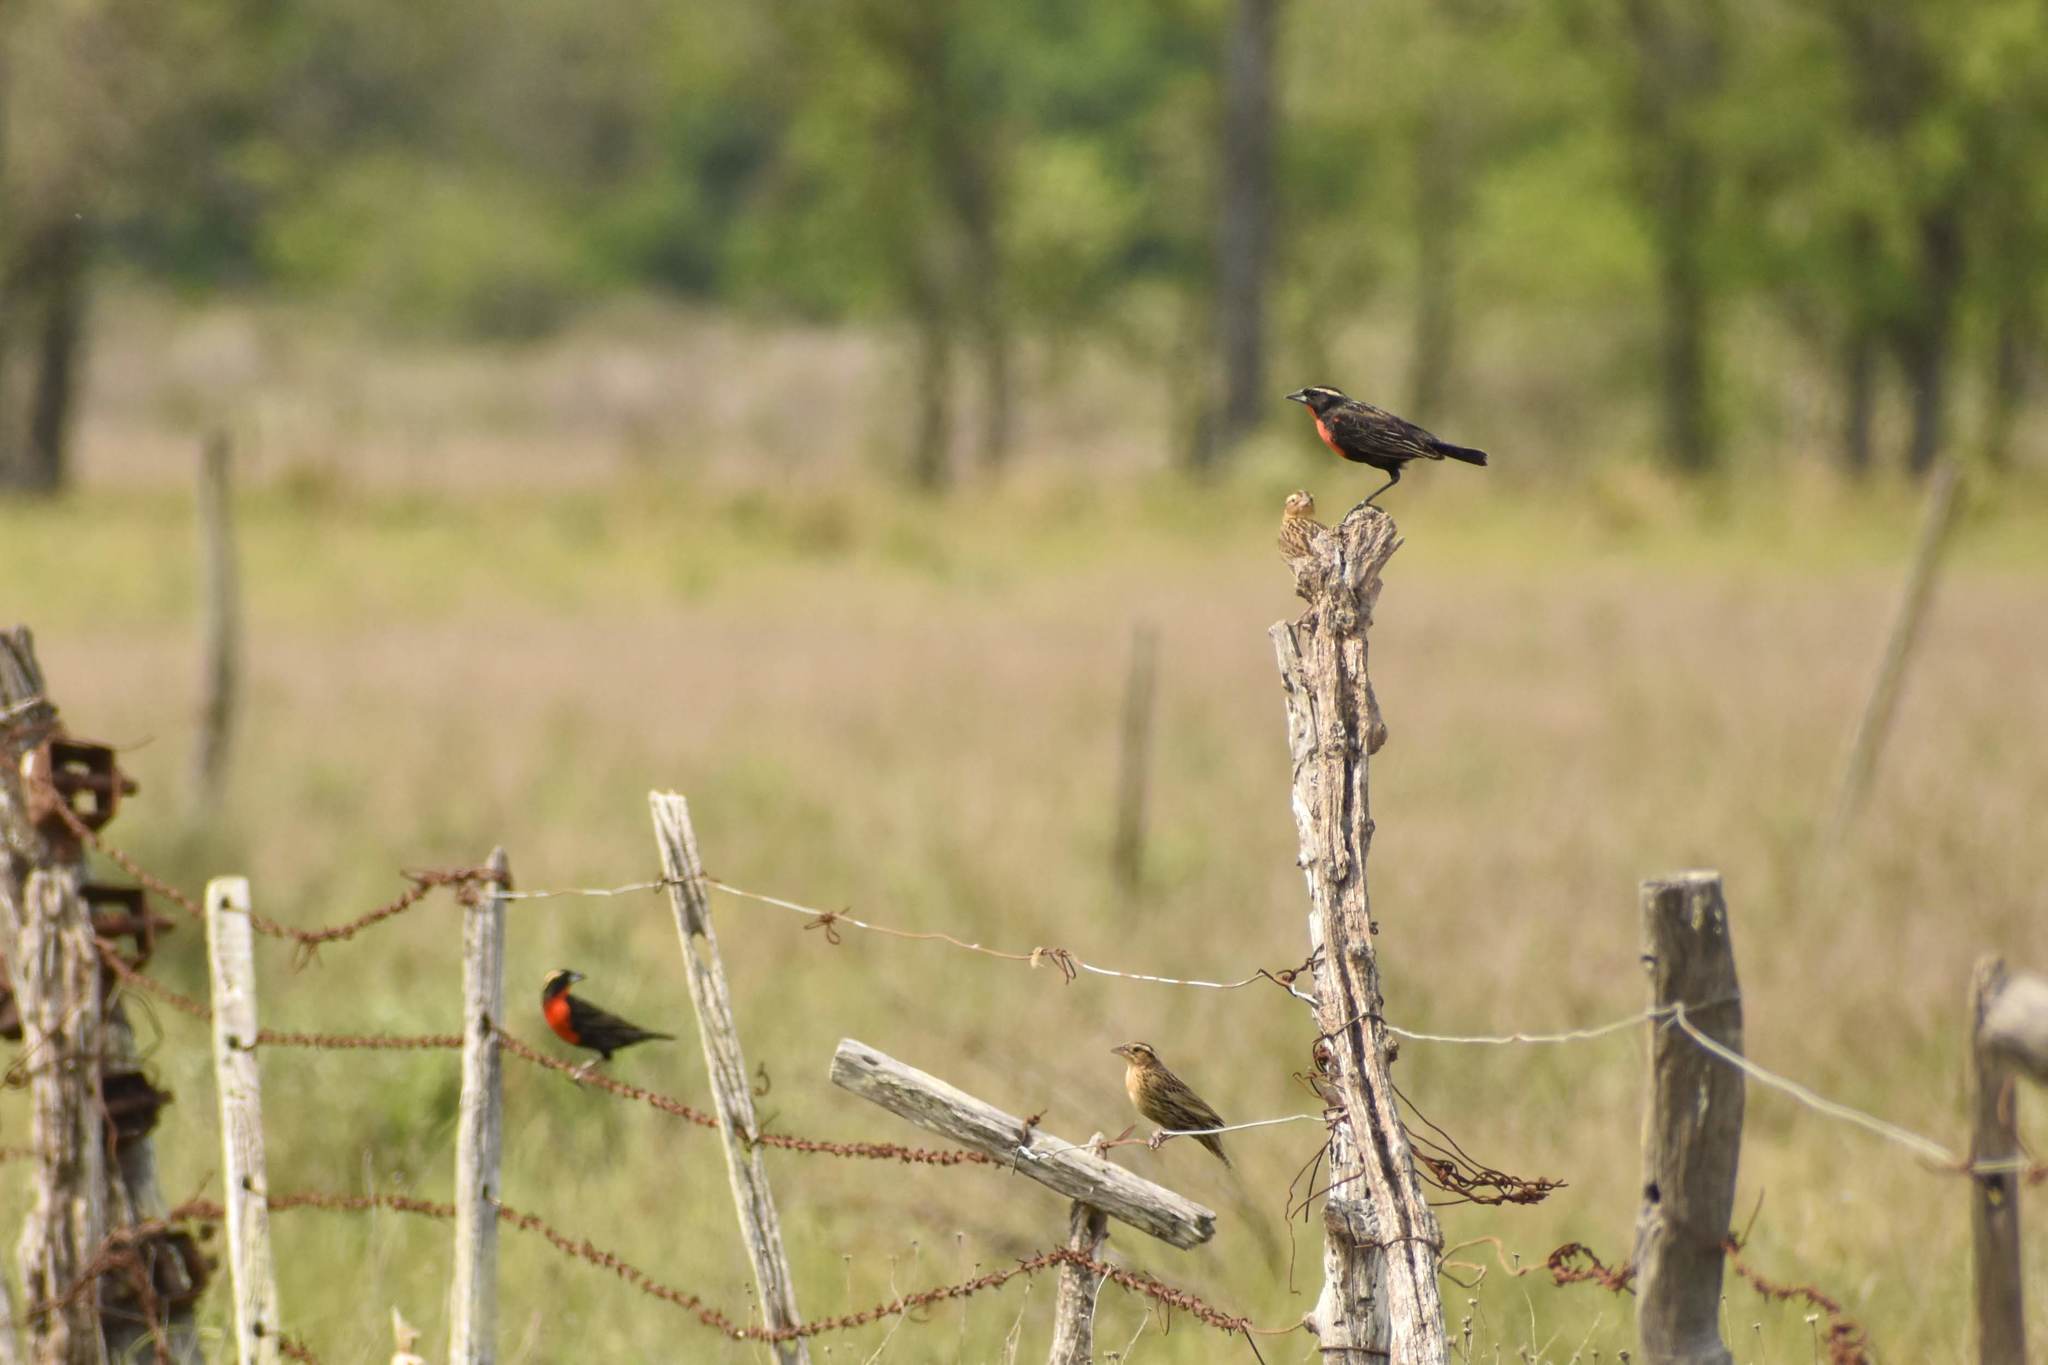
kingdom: Animalia
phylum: Chordata
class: Aves
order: Passeriformes
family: Icteridae
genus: Sturnella
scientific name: Sturnella superciliaris
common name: White-browed blackbird
